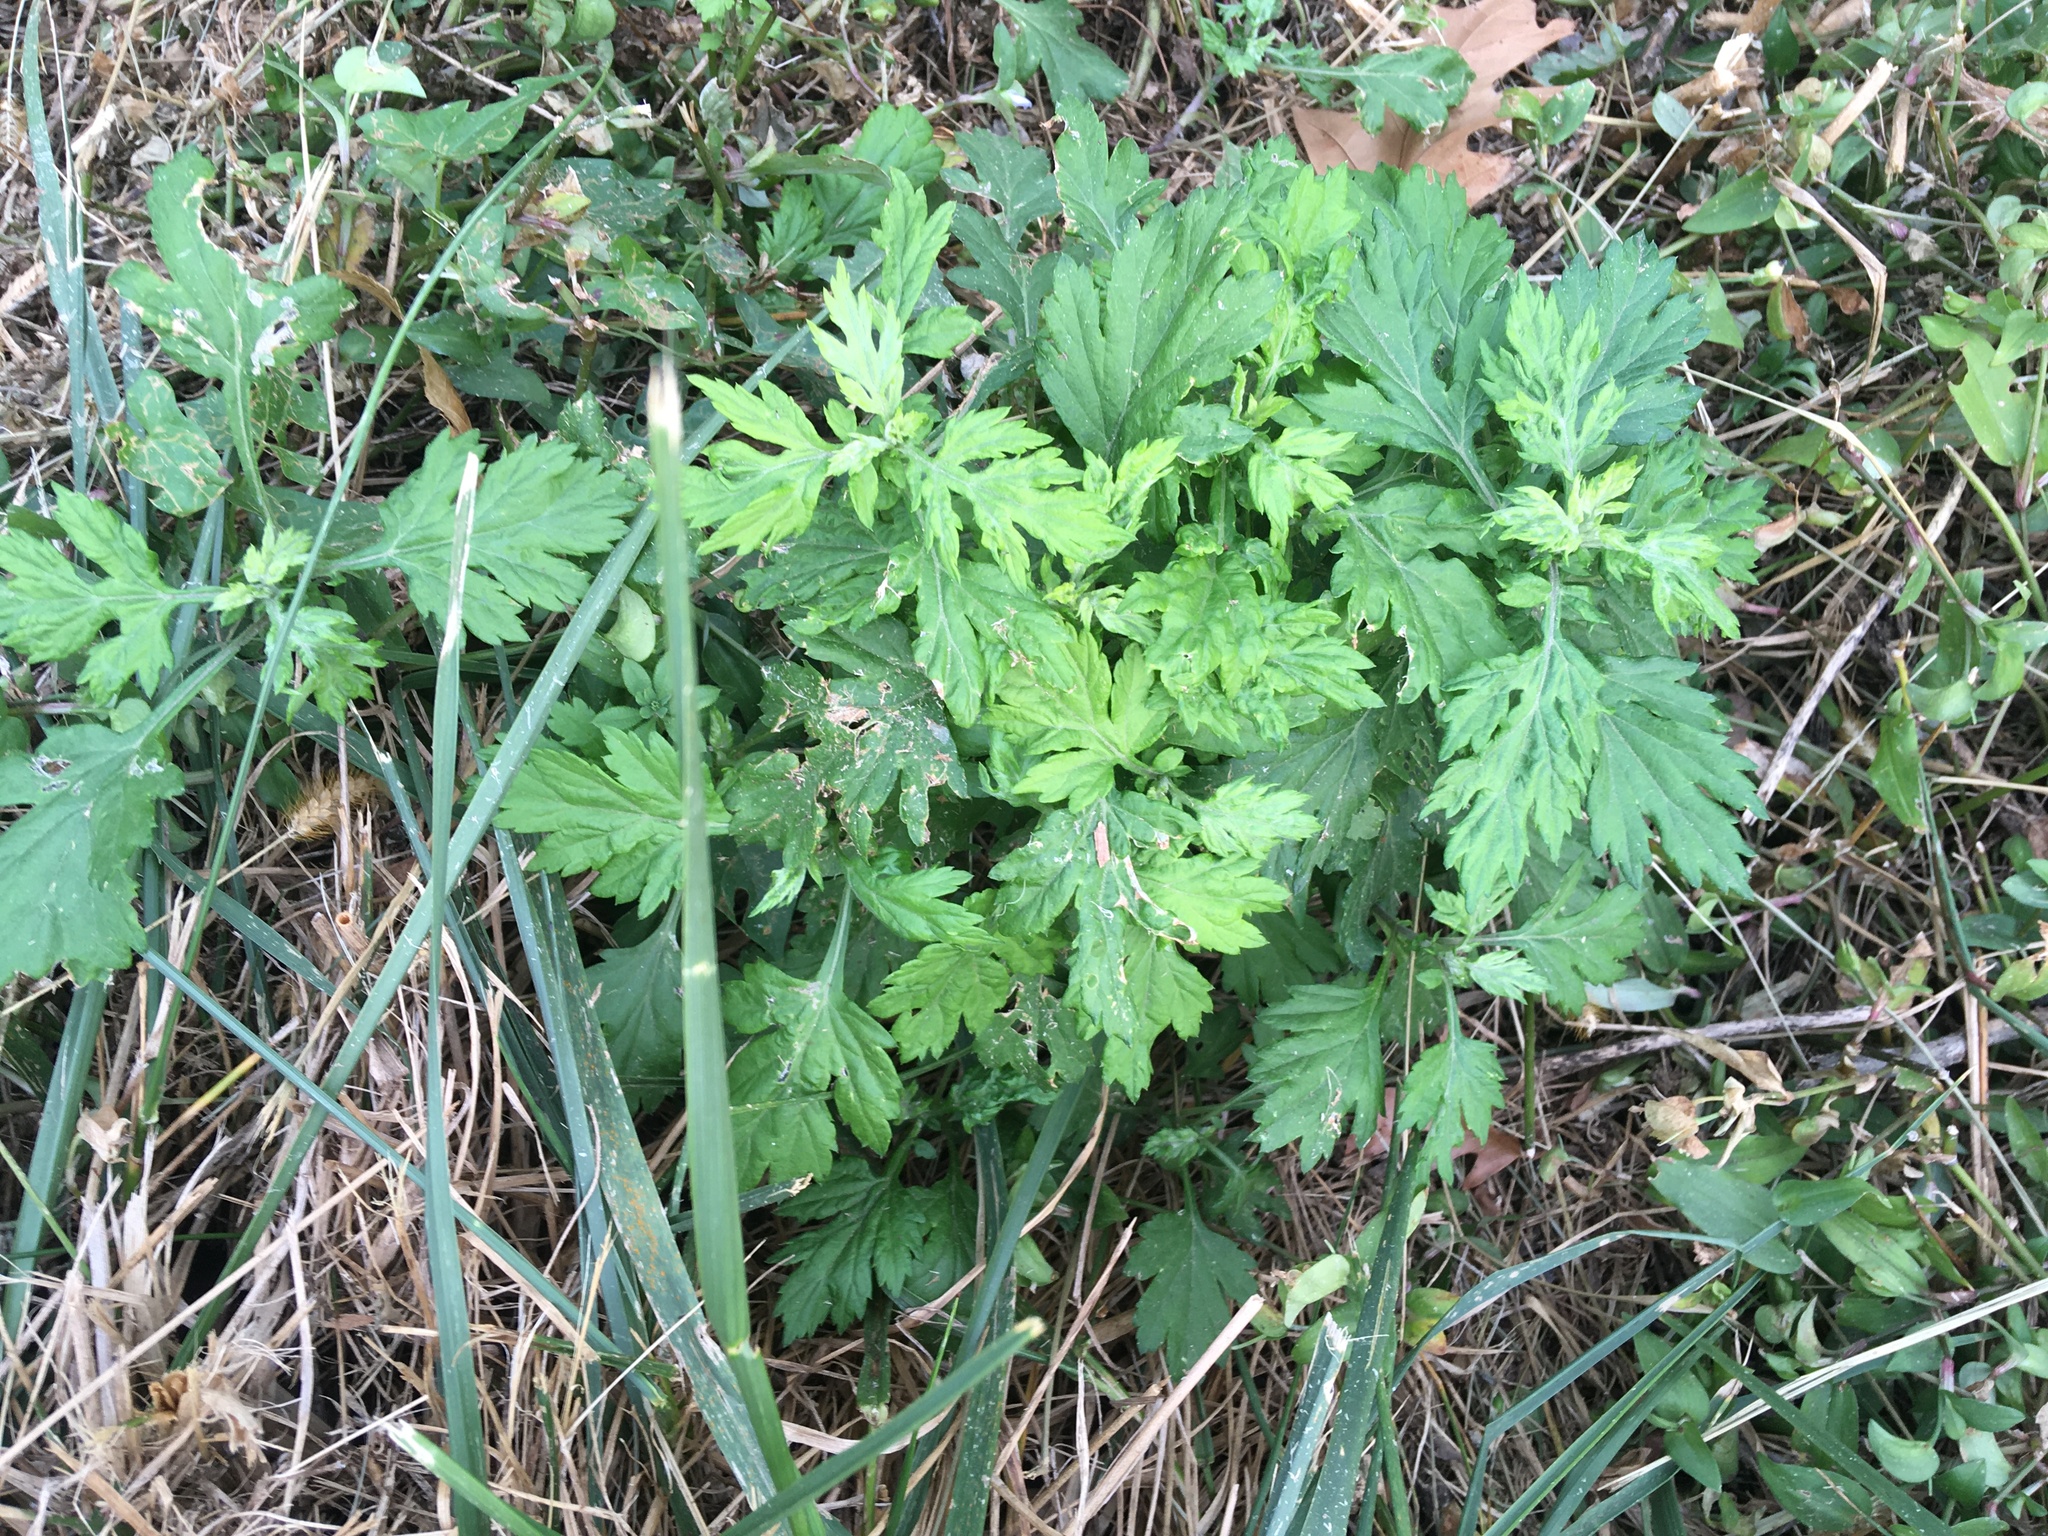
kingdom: Plantae
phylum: Tracheophyta
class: Magnoliopsida
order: Asterales
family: Asteraceae
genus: Artemisia
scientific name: Artemisia vulgaris
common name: Mugwort
